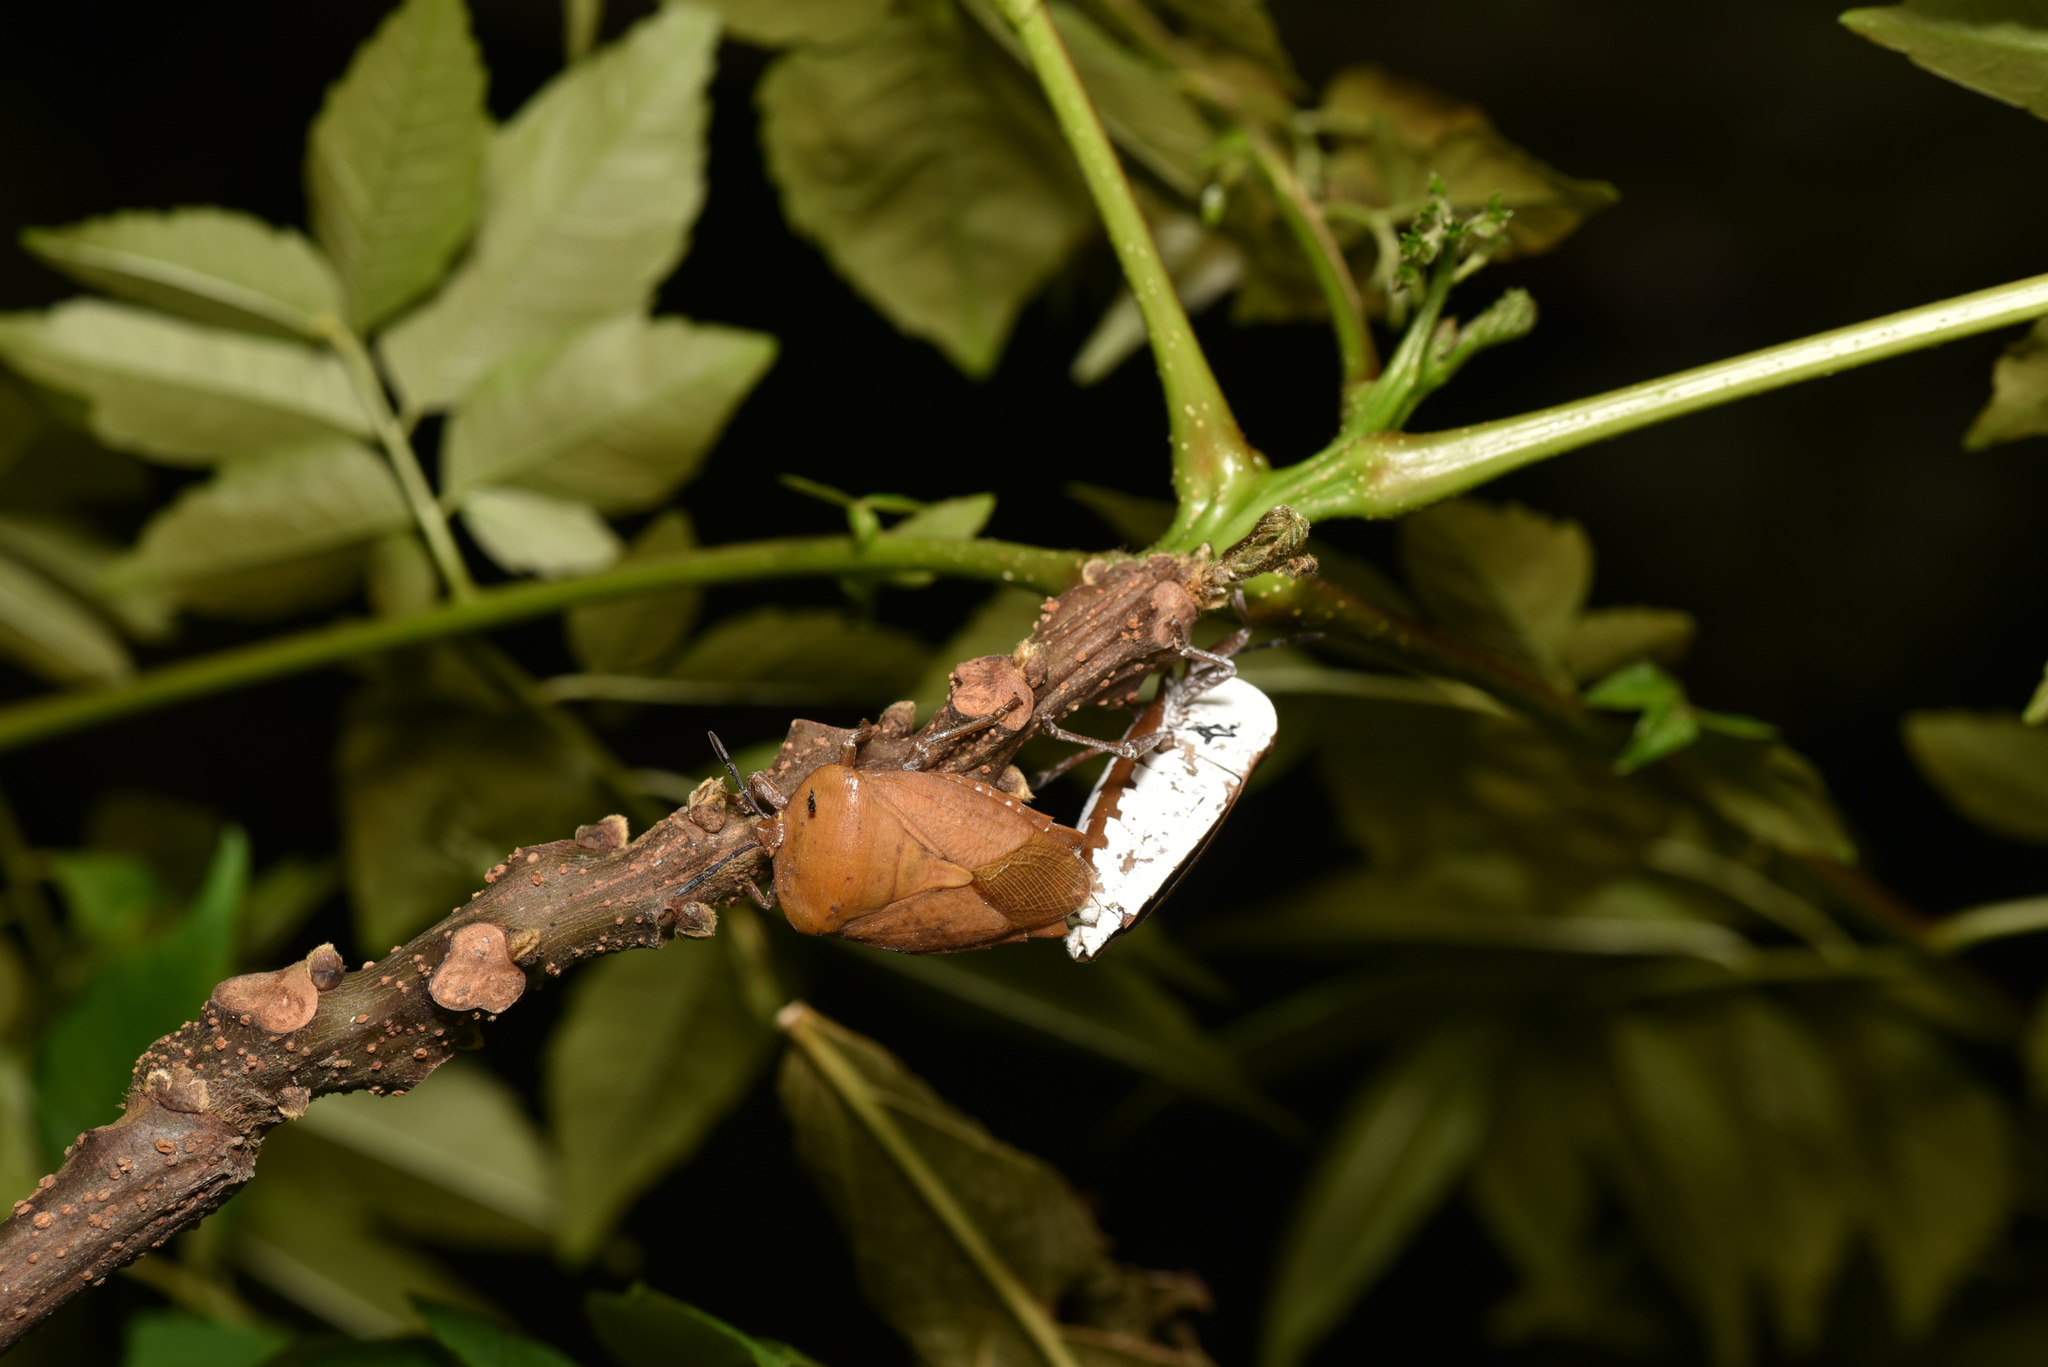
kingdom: Animalia
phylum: Arthropoda
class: Insecta
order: Hemiptera
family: Tessaratomidae
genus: Tessaratoma
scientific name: Tessaratoma papillosa
